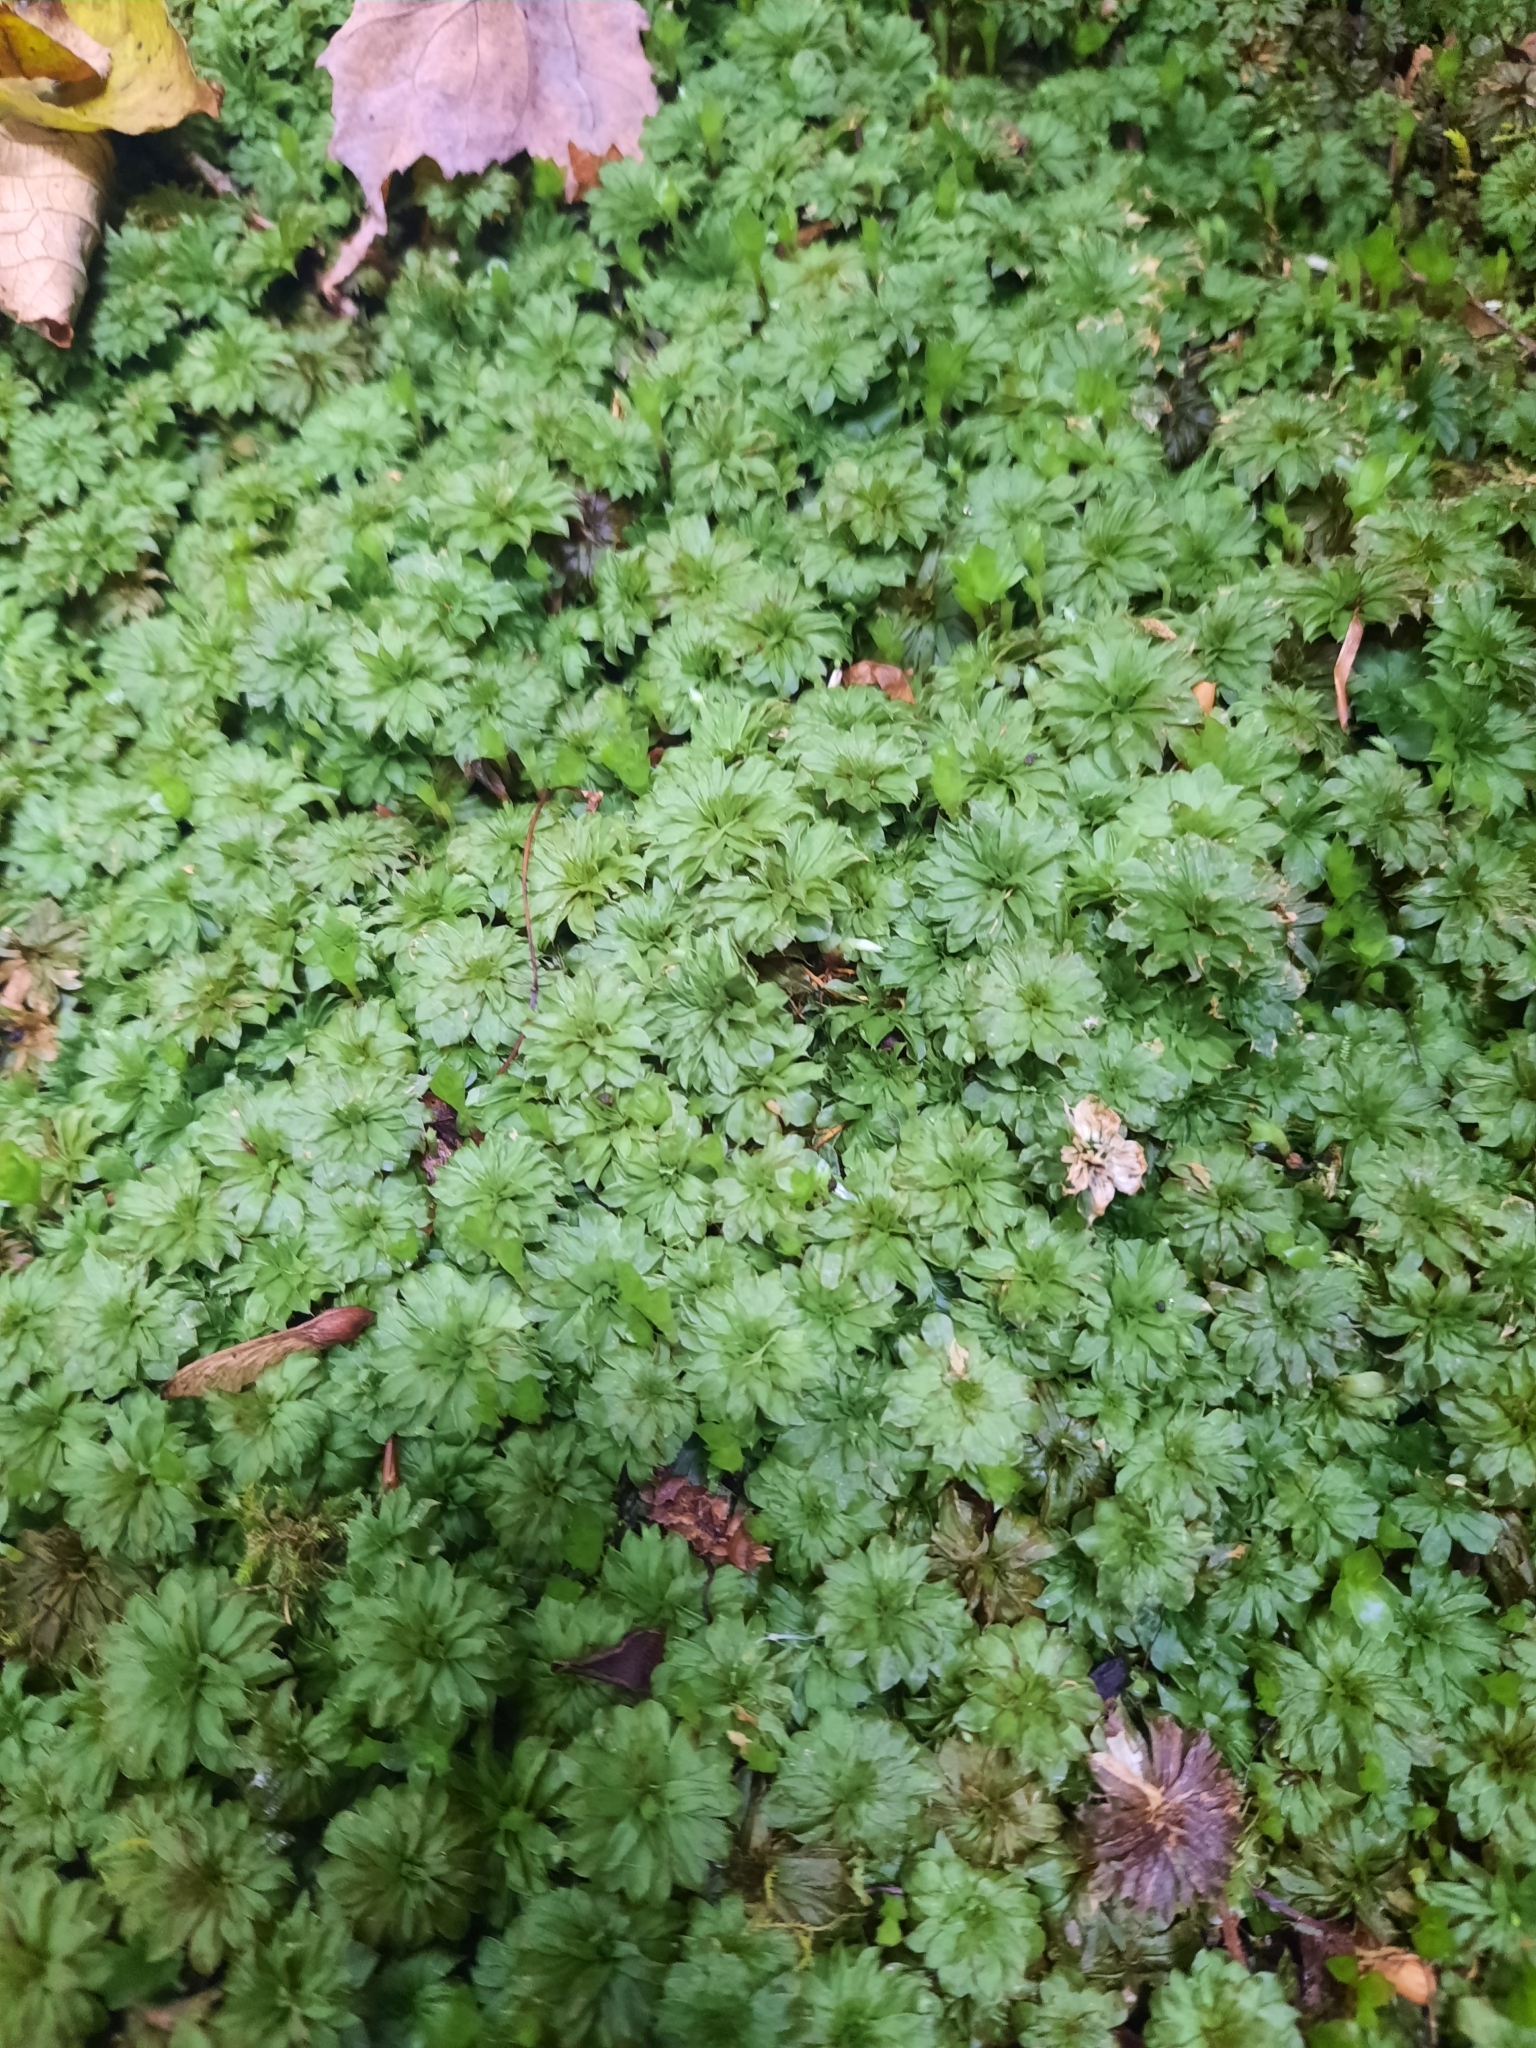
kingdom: Plantae
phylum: Bryophyta
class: Bryopsida
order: Bryales
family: Bryaceae
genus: Rhodobryum
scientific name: Rhodobryum ontariense
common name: Ontario rhodobryum moss
